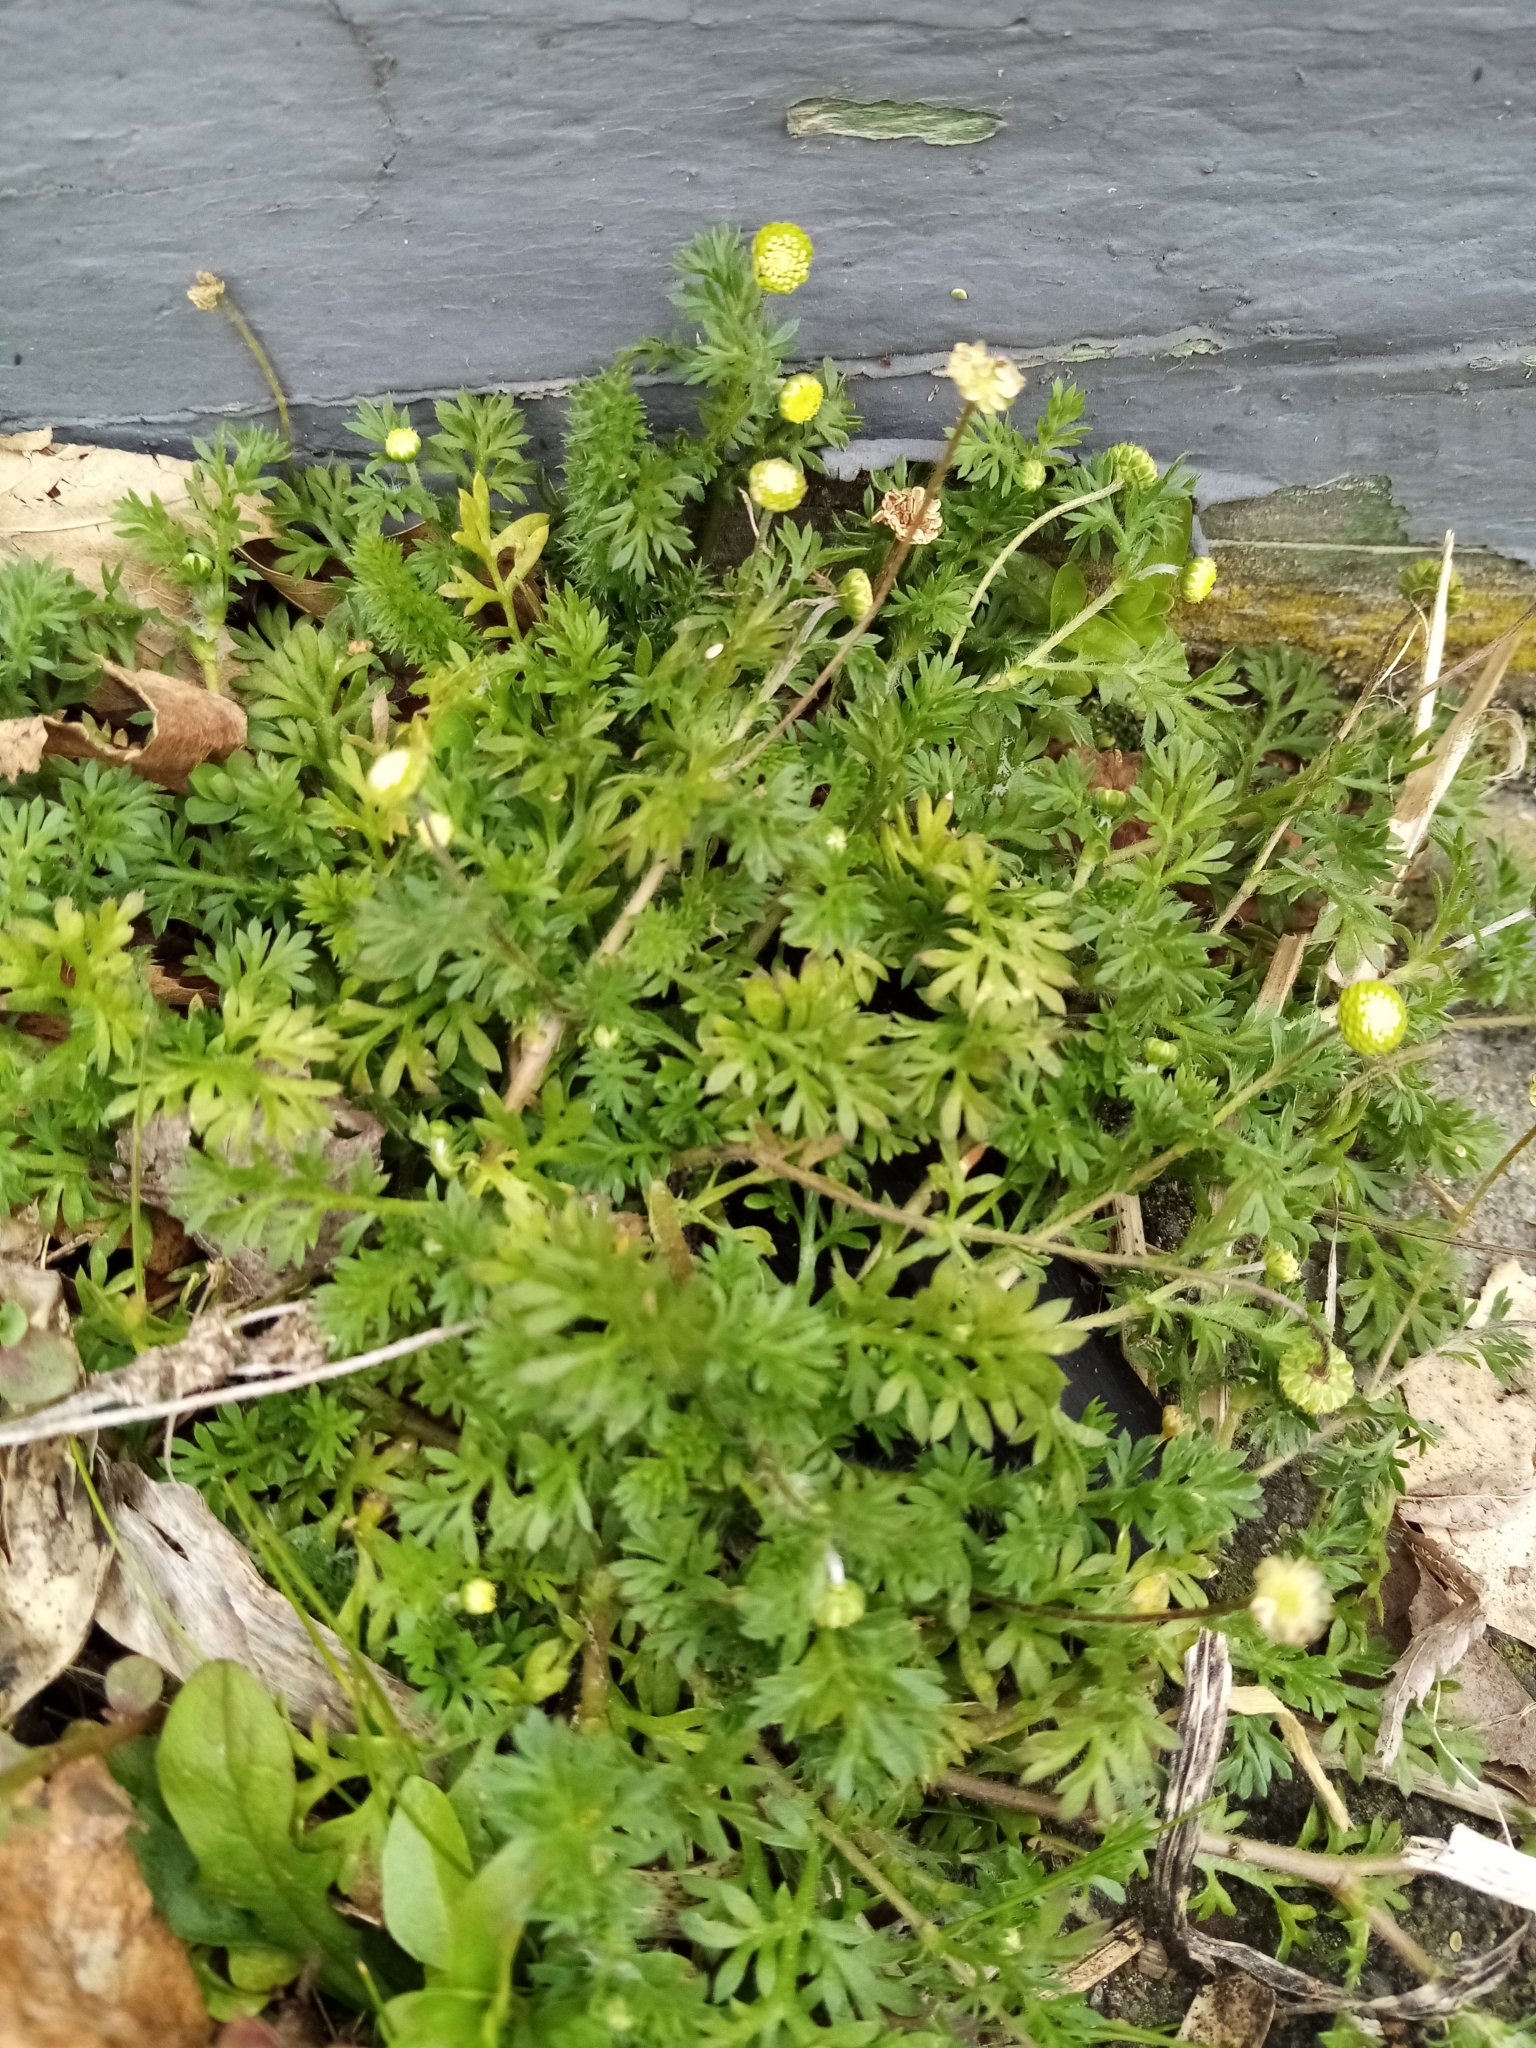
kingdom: Plantae
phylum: Tracheophyta
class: Magnoliopsida
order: Asterales
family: Asteraceae
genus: Cotula
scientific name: Cotula australis
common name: Australian waterbuttons
